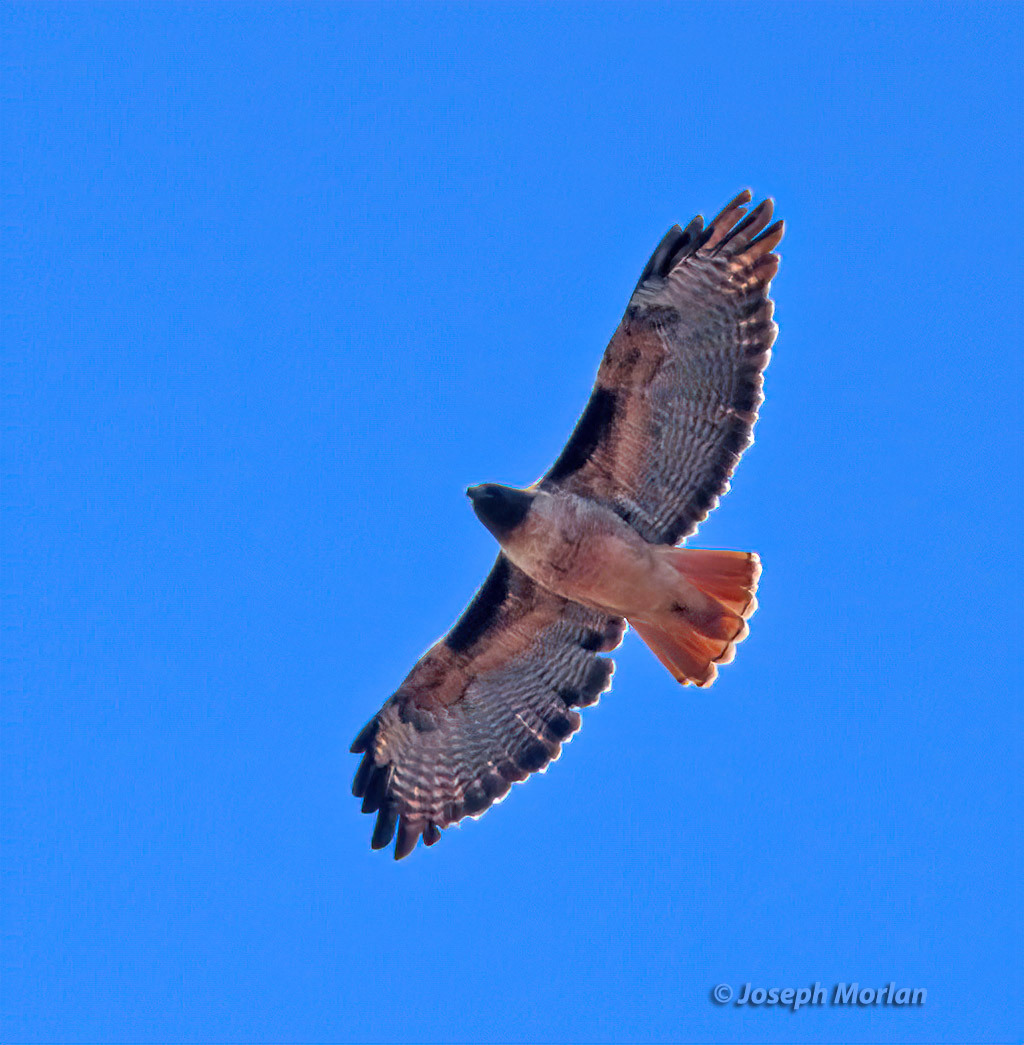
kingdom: Animalia
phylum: Chordata
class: Aves
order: Accipitriformes
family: Accipitridae
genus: Buteo
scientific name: Buteo jamaicensis
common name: Red-tailed hawk
